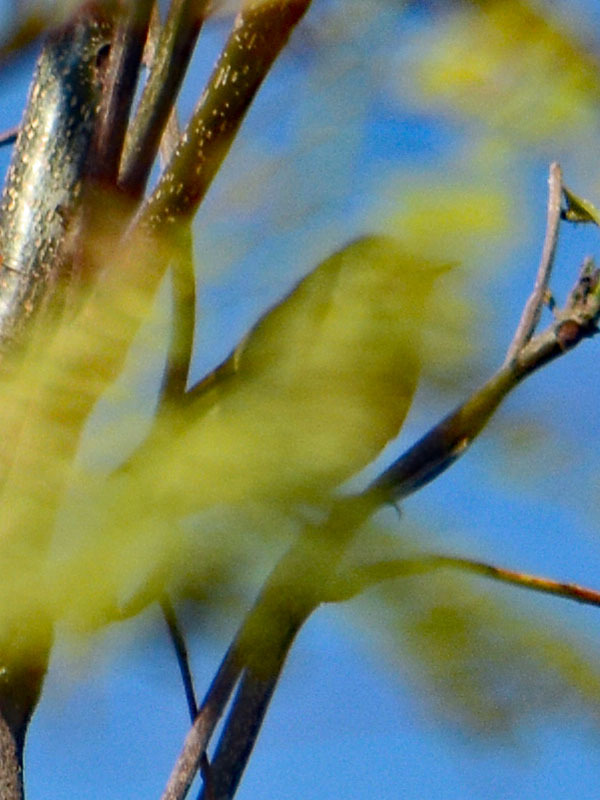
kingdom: Animalia
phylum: Chordata
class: Aves
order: Passeriformes
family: Regulidae
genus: Regulus
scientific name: Regulus calendula
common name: Ruby-crowned kinglet
